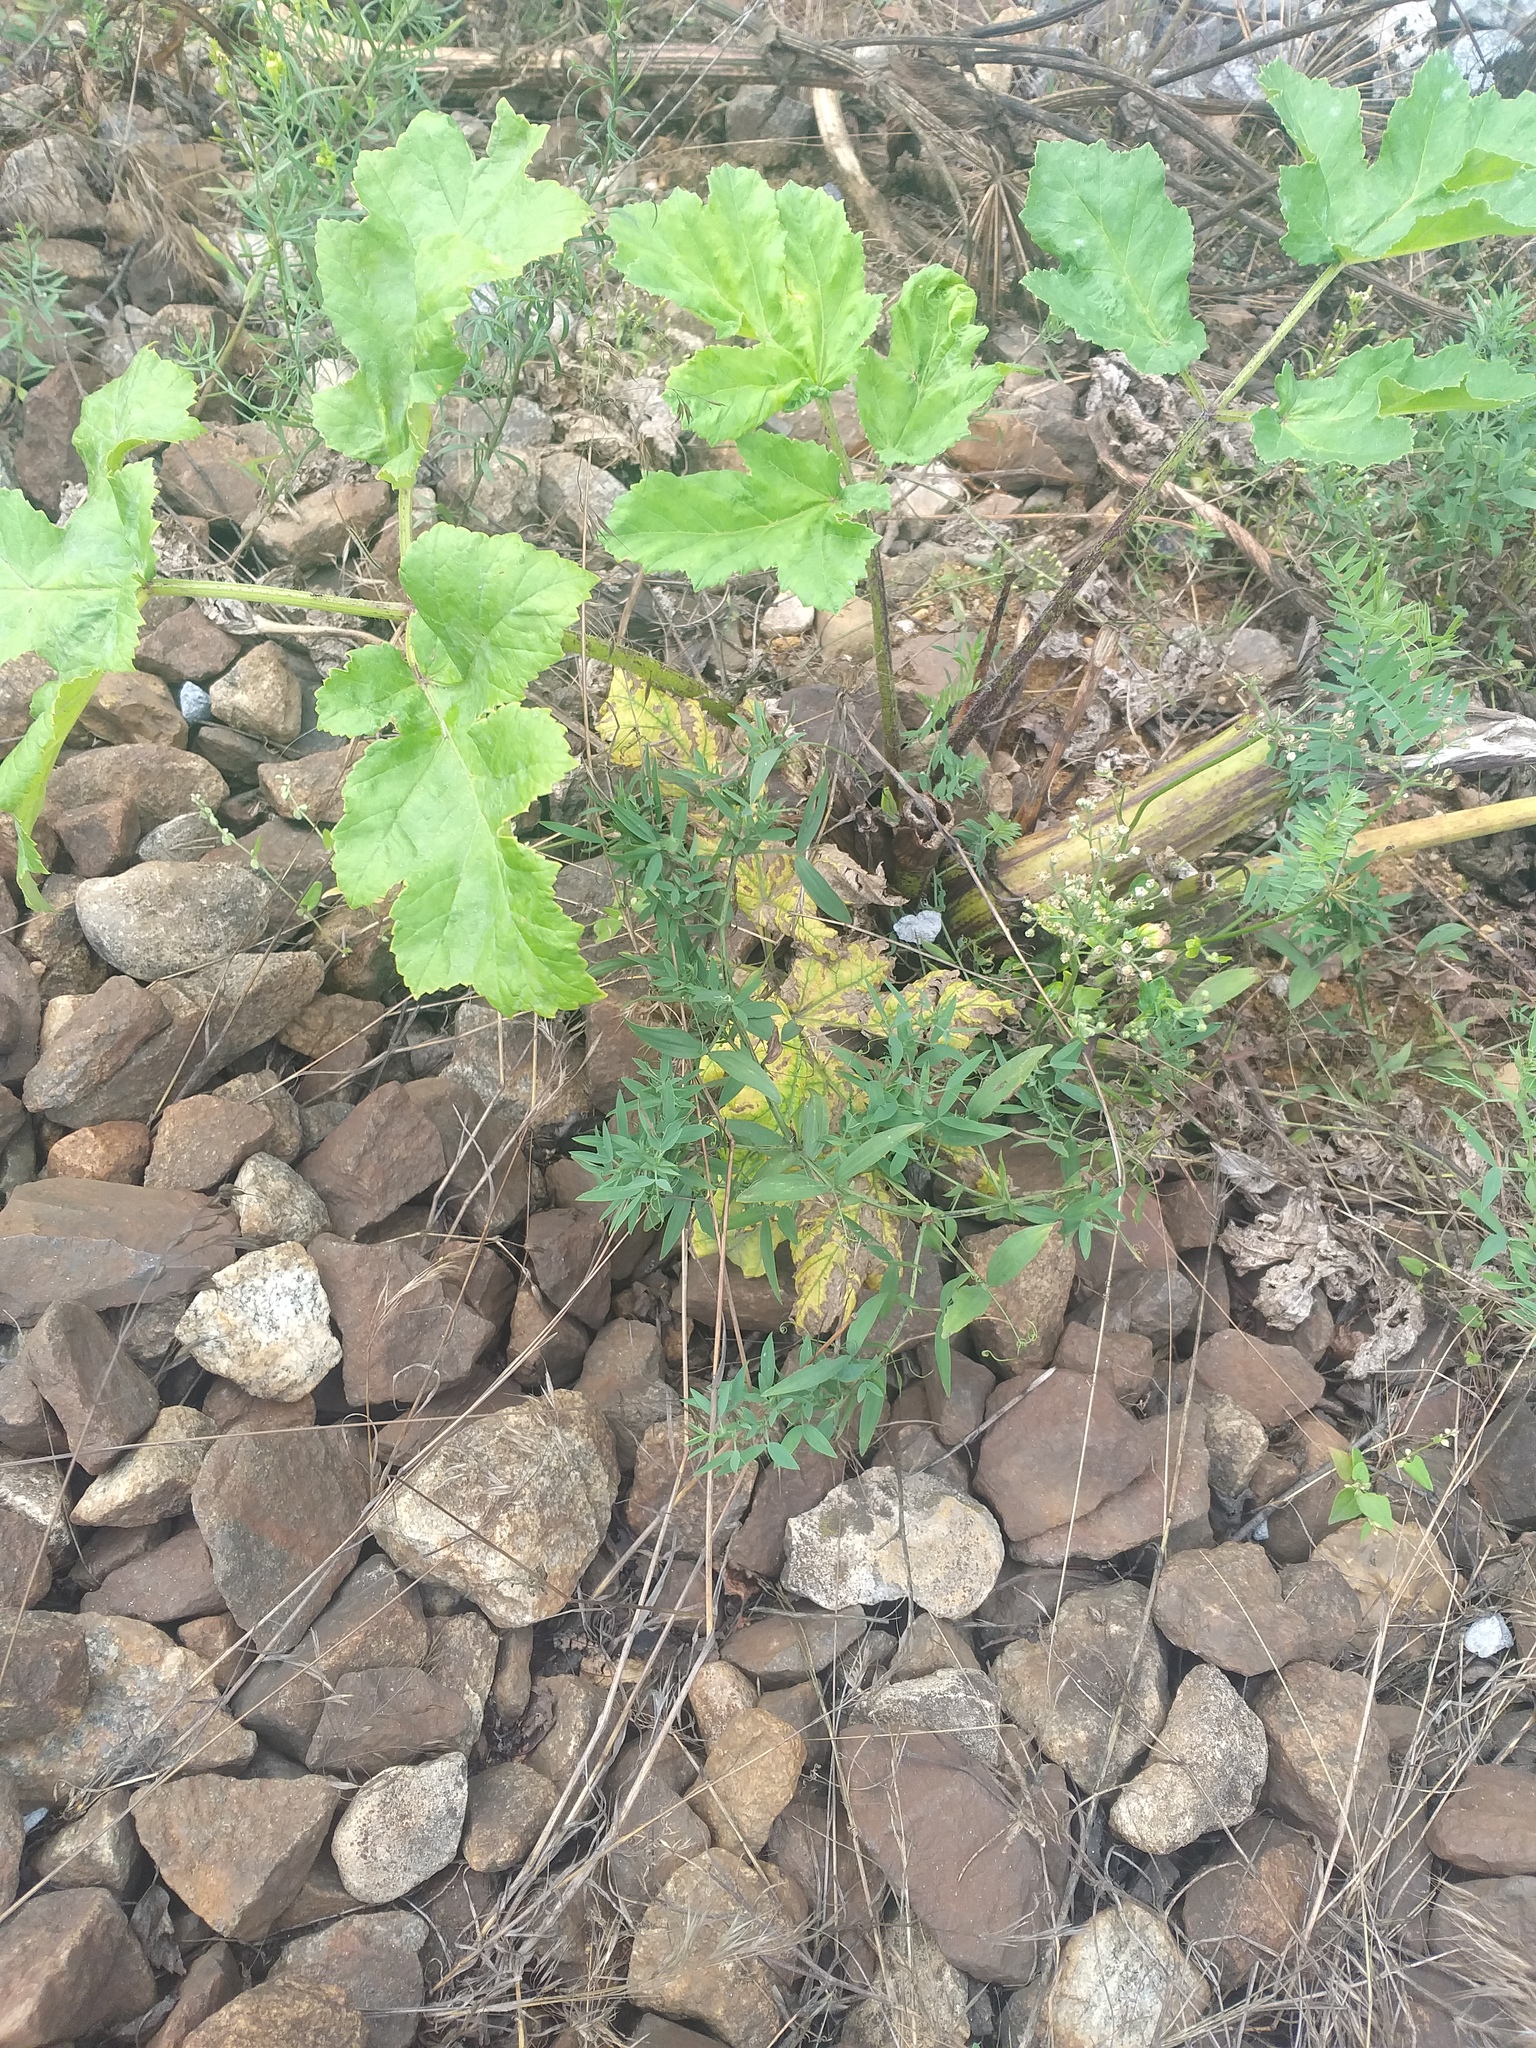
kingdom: Plantae
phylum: Tracheophyta
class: Magnoliopsida
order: Fabales
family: Fabaceae
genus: Lathyrus
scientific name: Lathyrus pratensis
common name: Meadow vetchling
